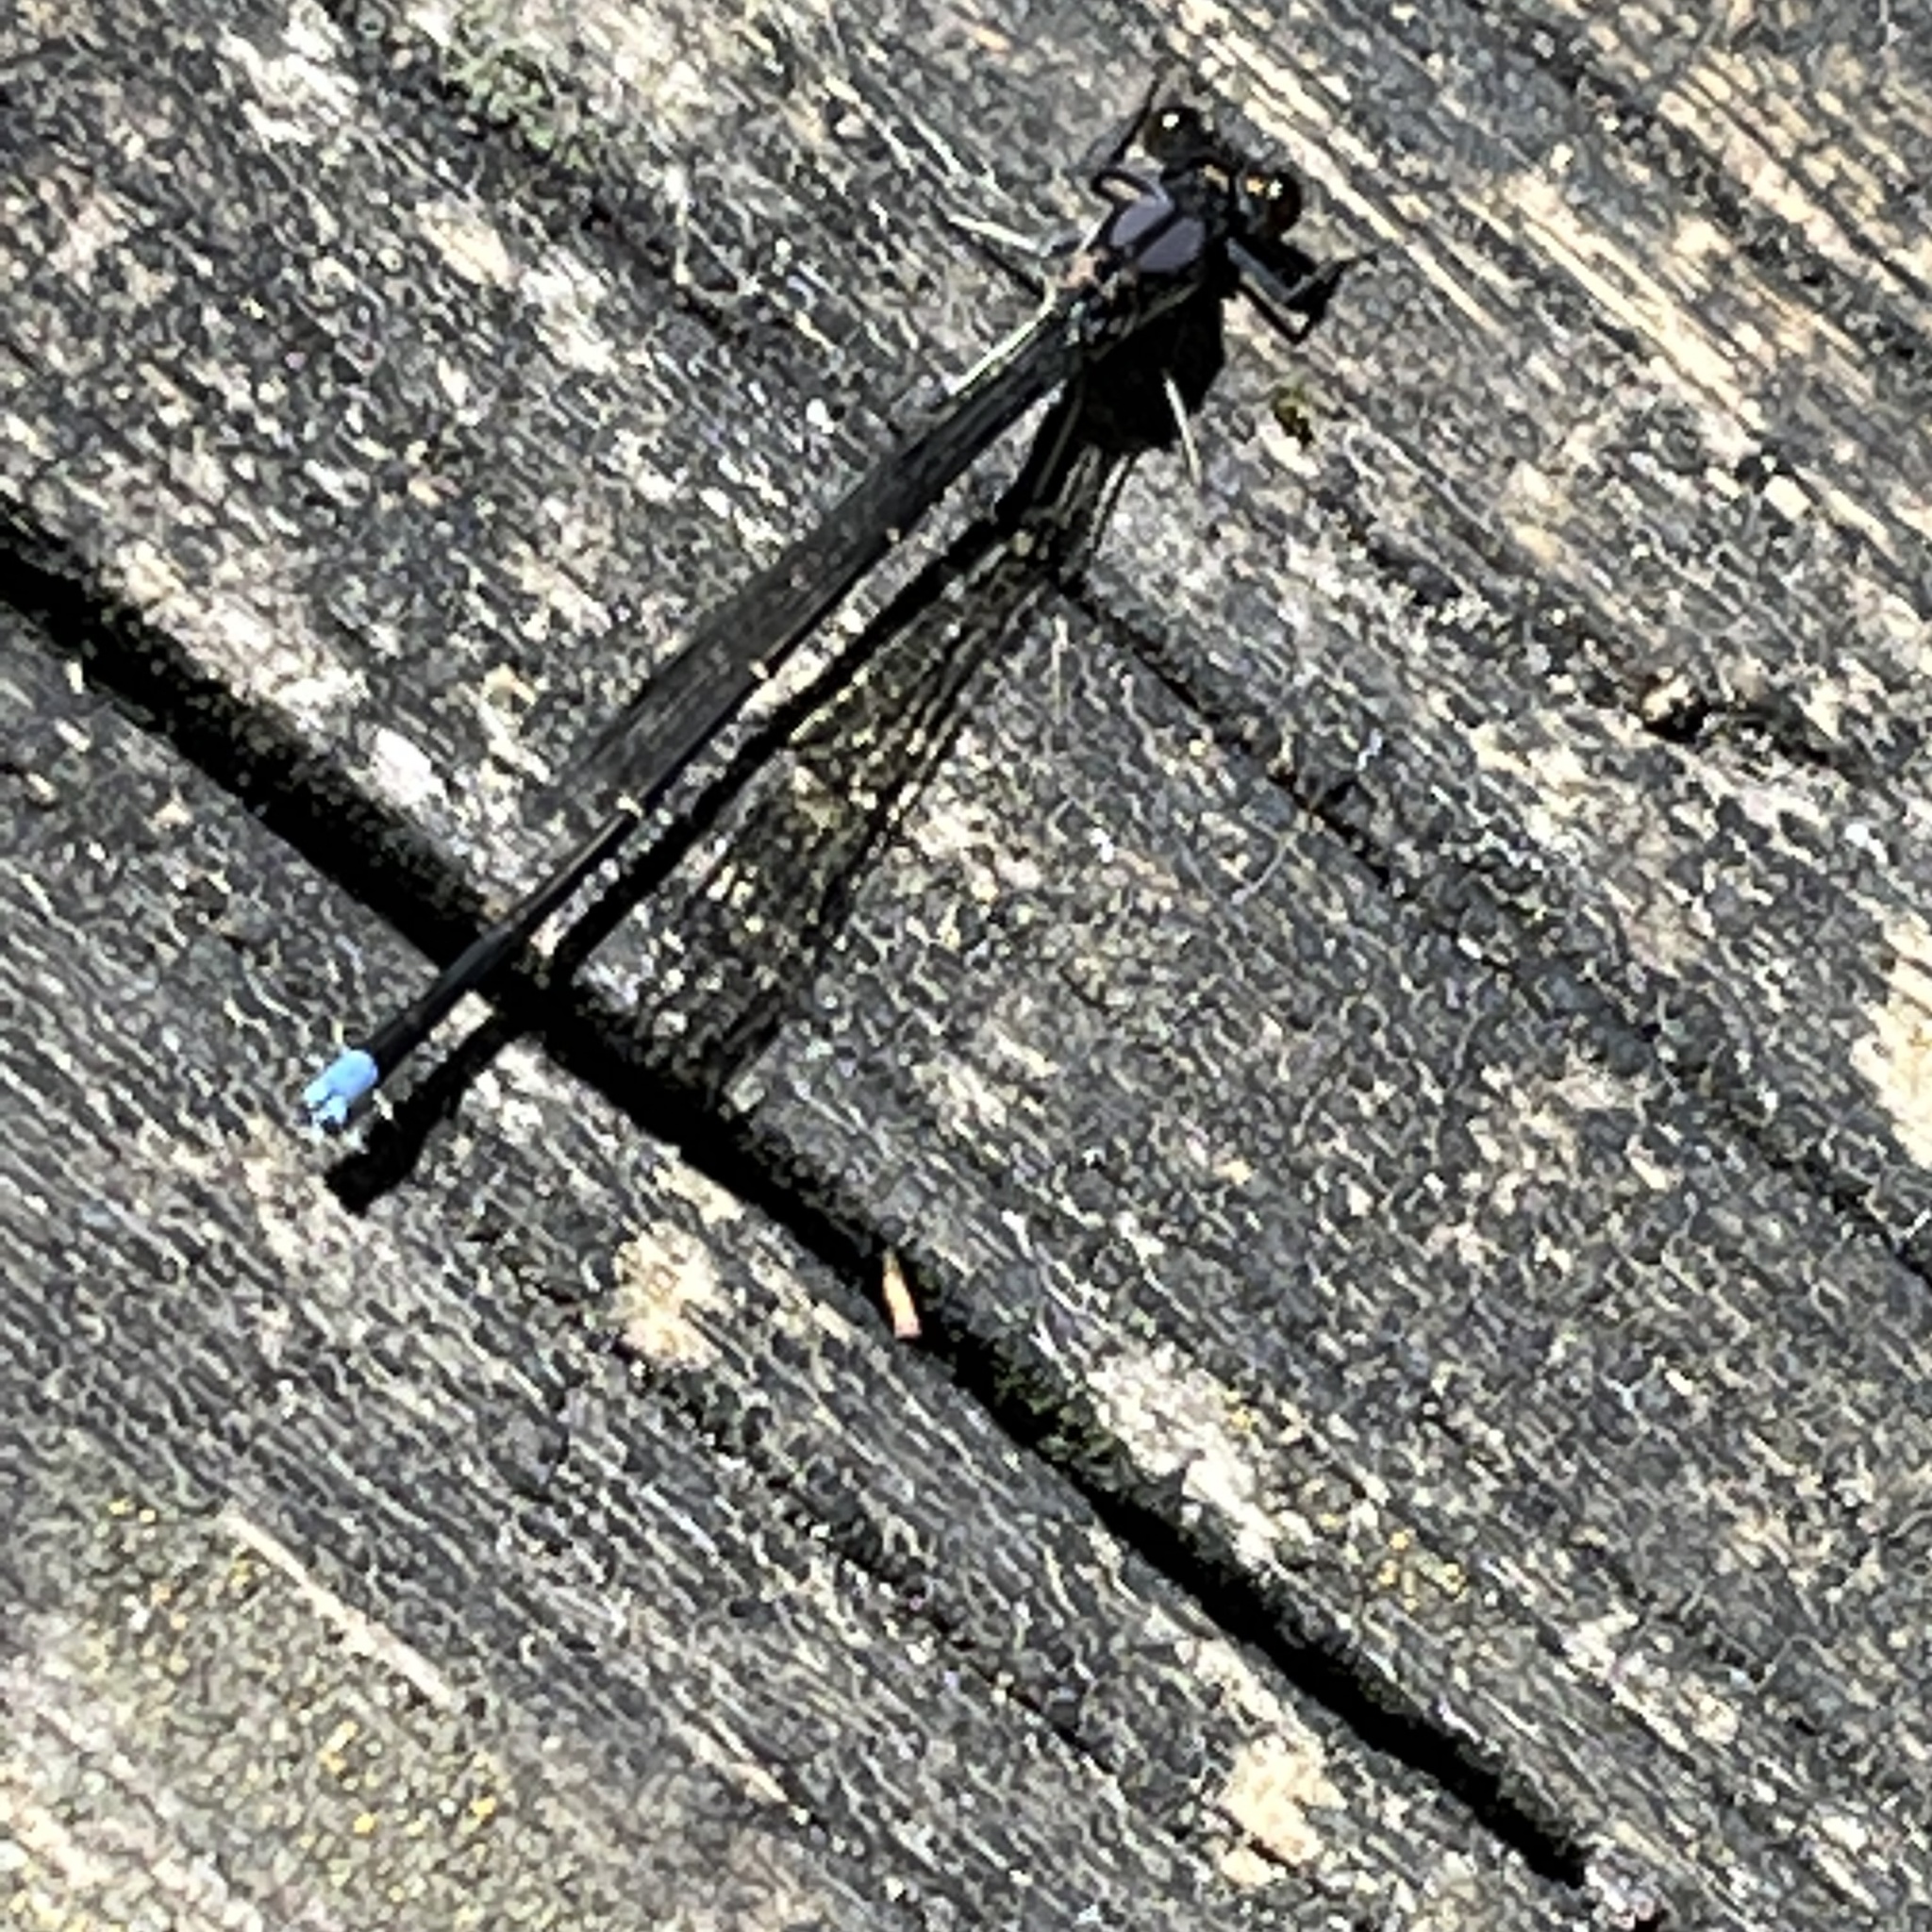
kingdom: Animalia
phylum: Arthropoda
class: Insecta
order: Odonata
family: Coenagrionidae
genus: Argia
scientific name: Argia tibialis
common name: Blue-tipped dancer
